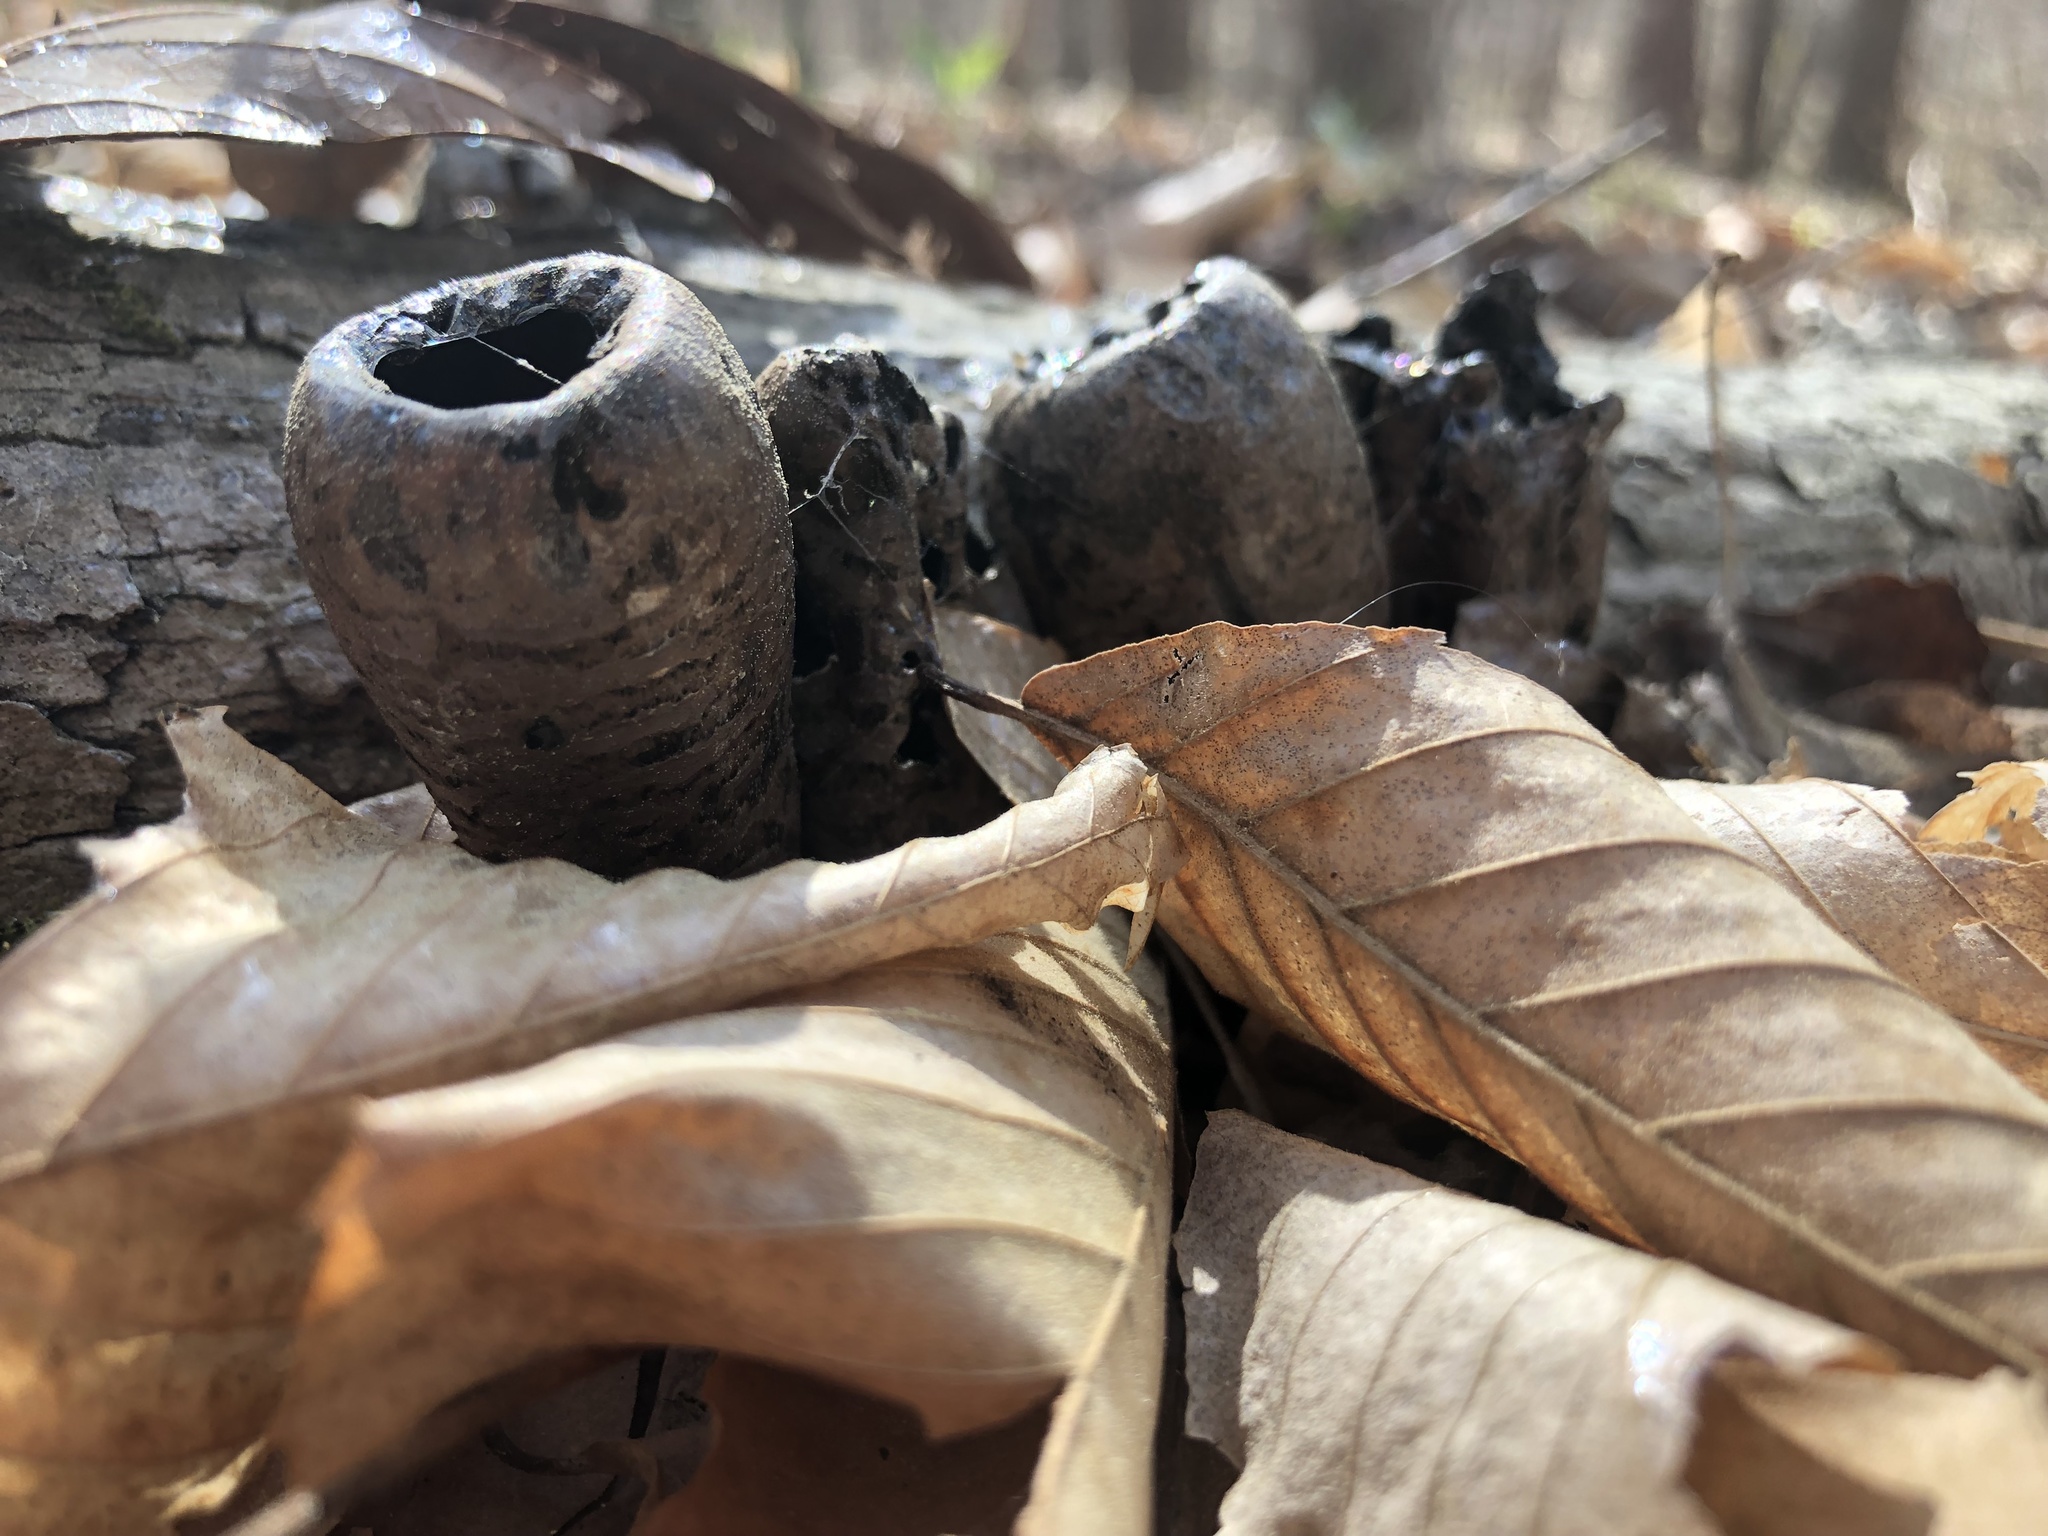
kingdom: Fungi
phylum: Ascomycota
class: Pezizomycetes
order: Pezizales
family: Sarcosomataceae
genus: Urnula
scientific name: Urnula craterium
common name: Devil's urn
